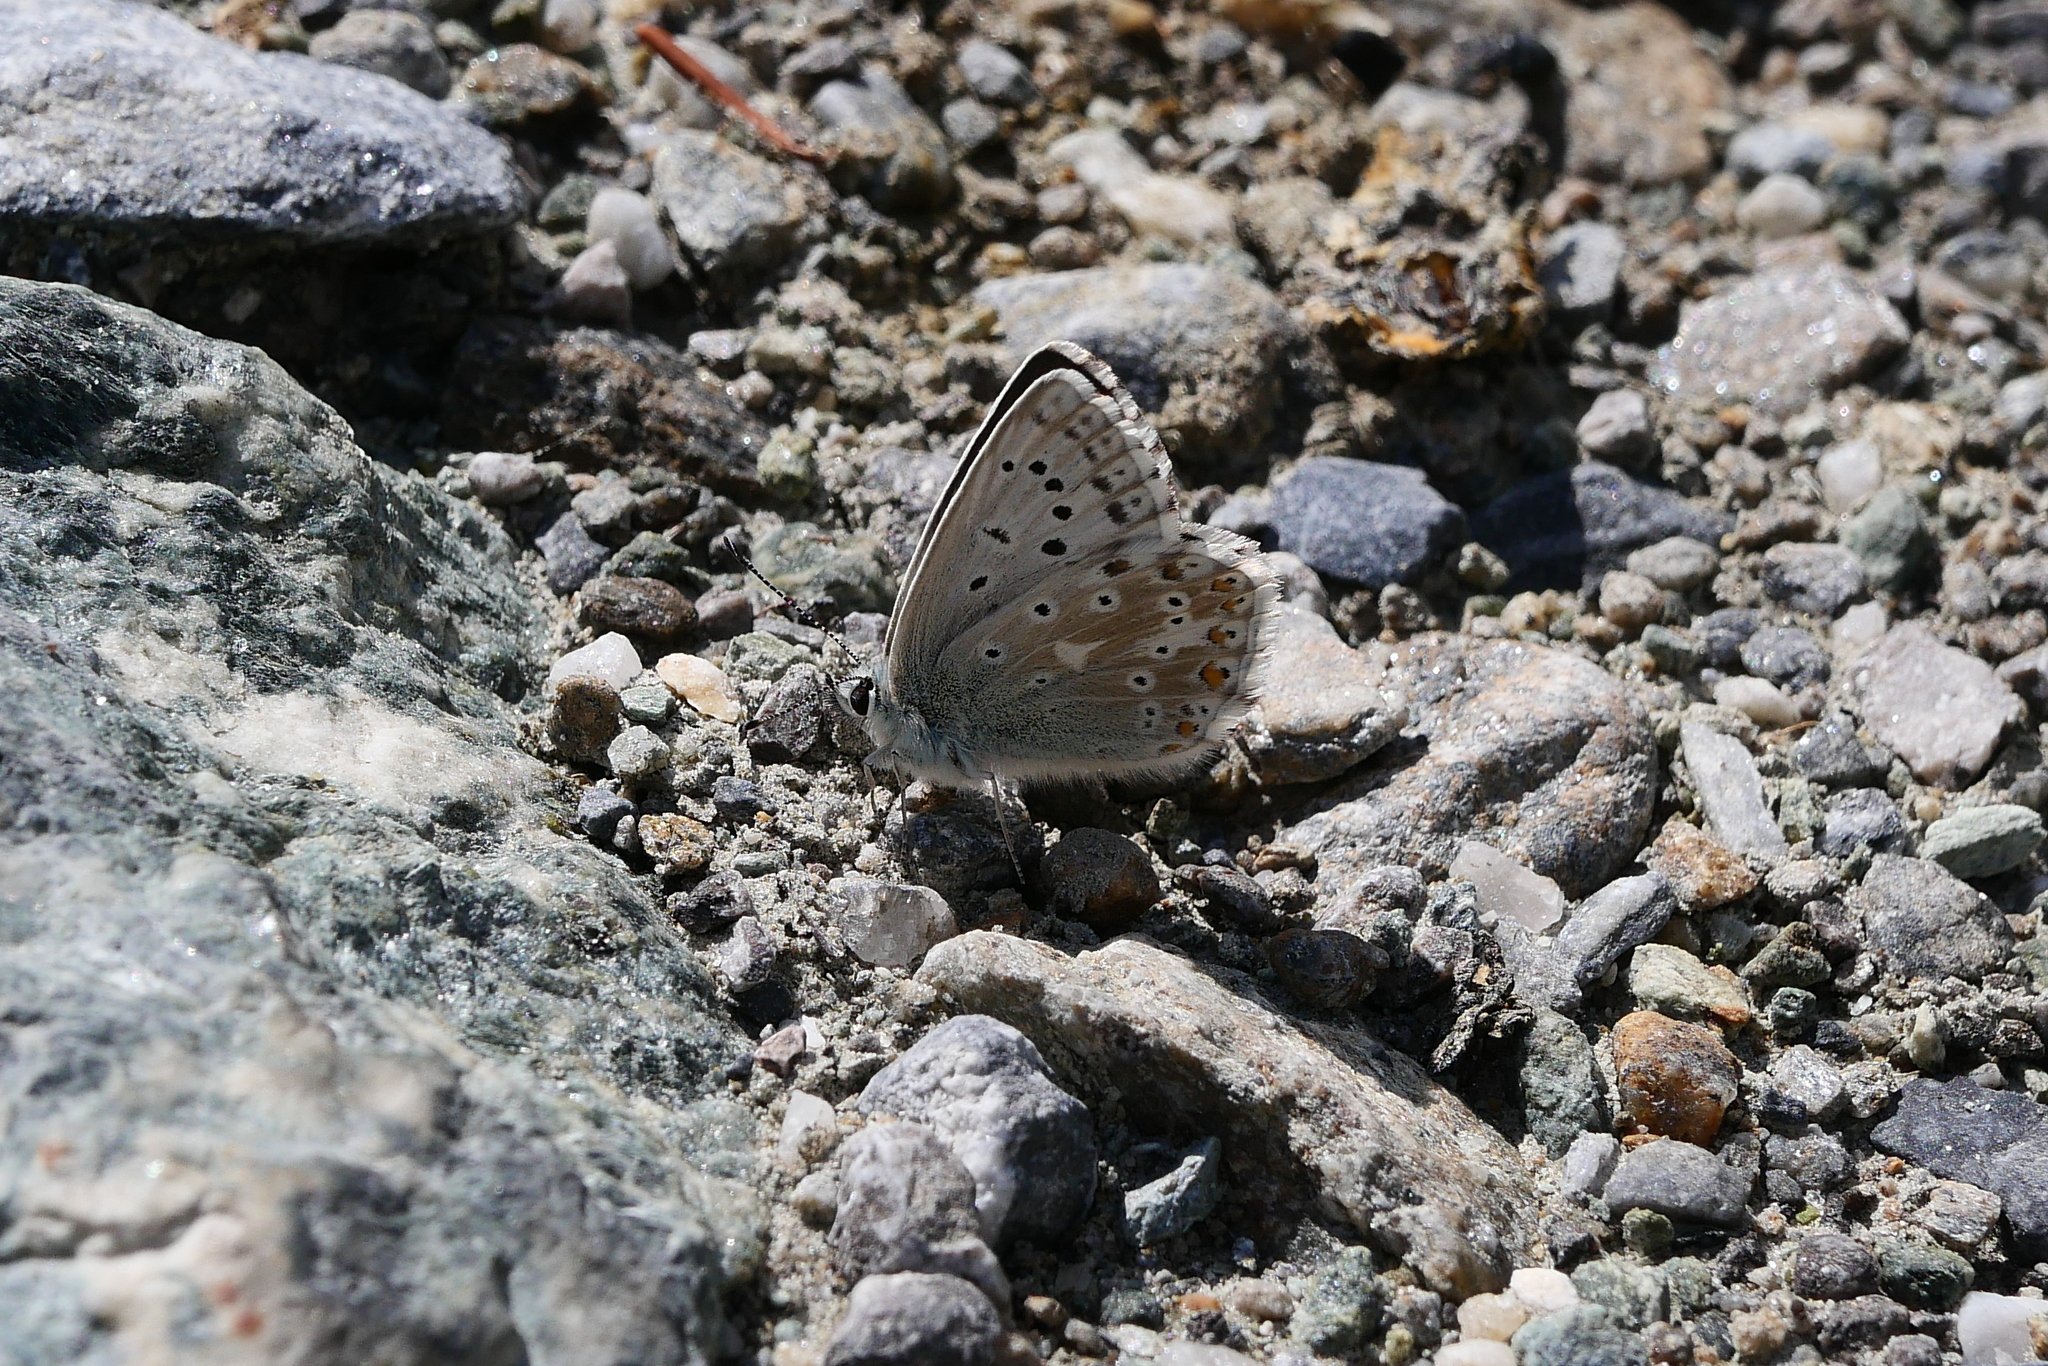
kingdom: Animalia
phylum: Arthropoda
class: Insecta
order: Lepidoptera
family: Lycaenidae
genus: Lysandra
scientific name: Lysandra coridon
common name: Chalkhill blue
